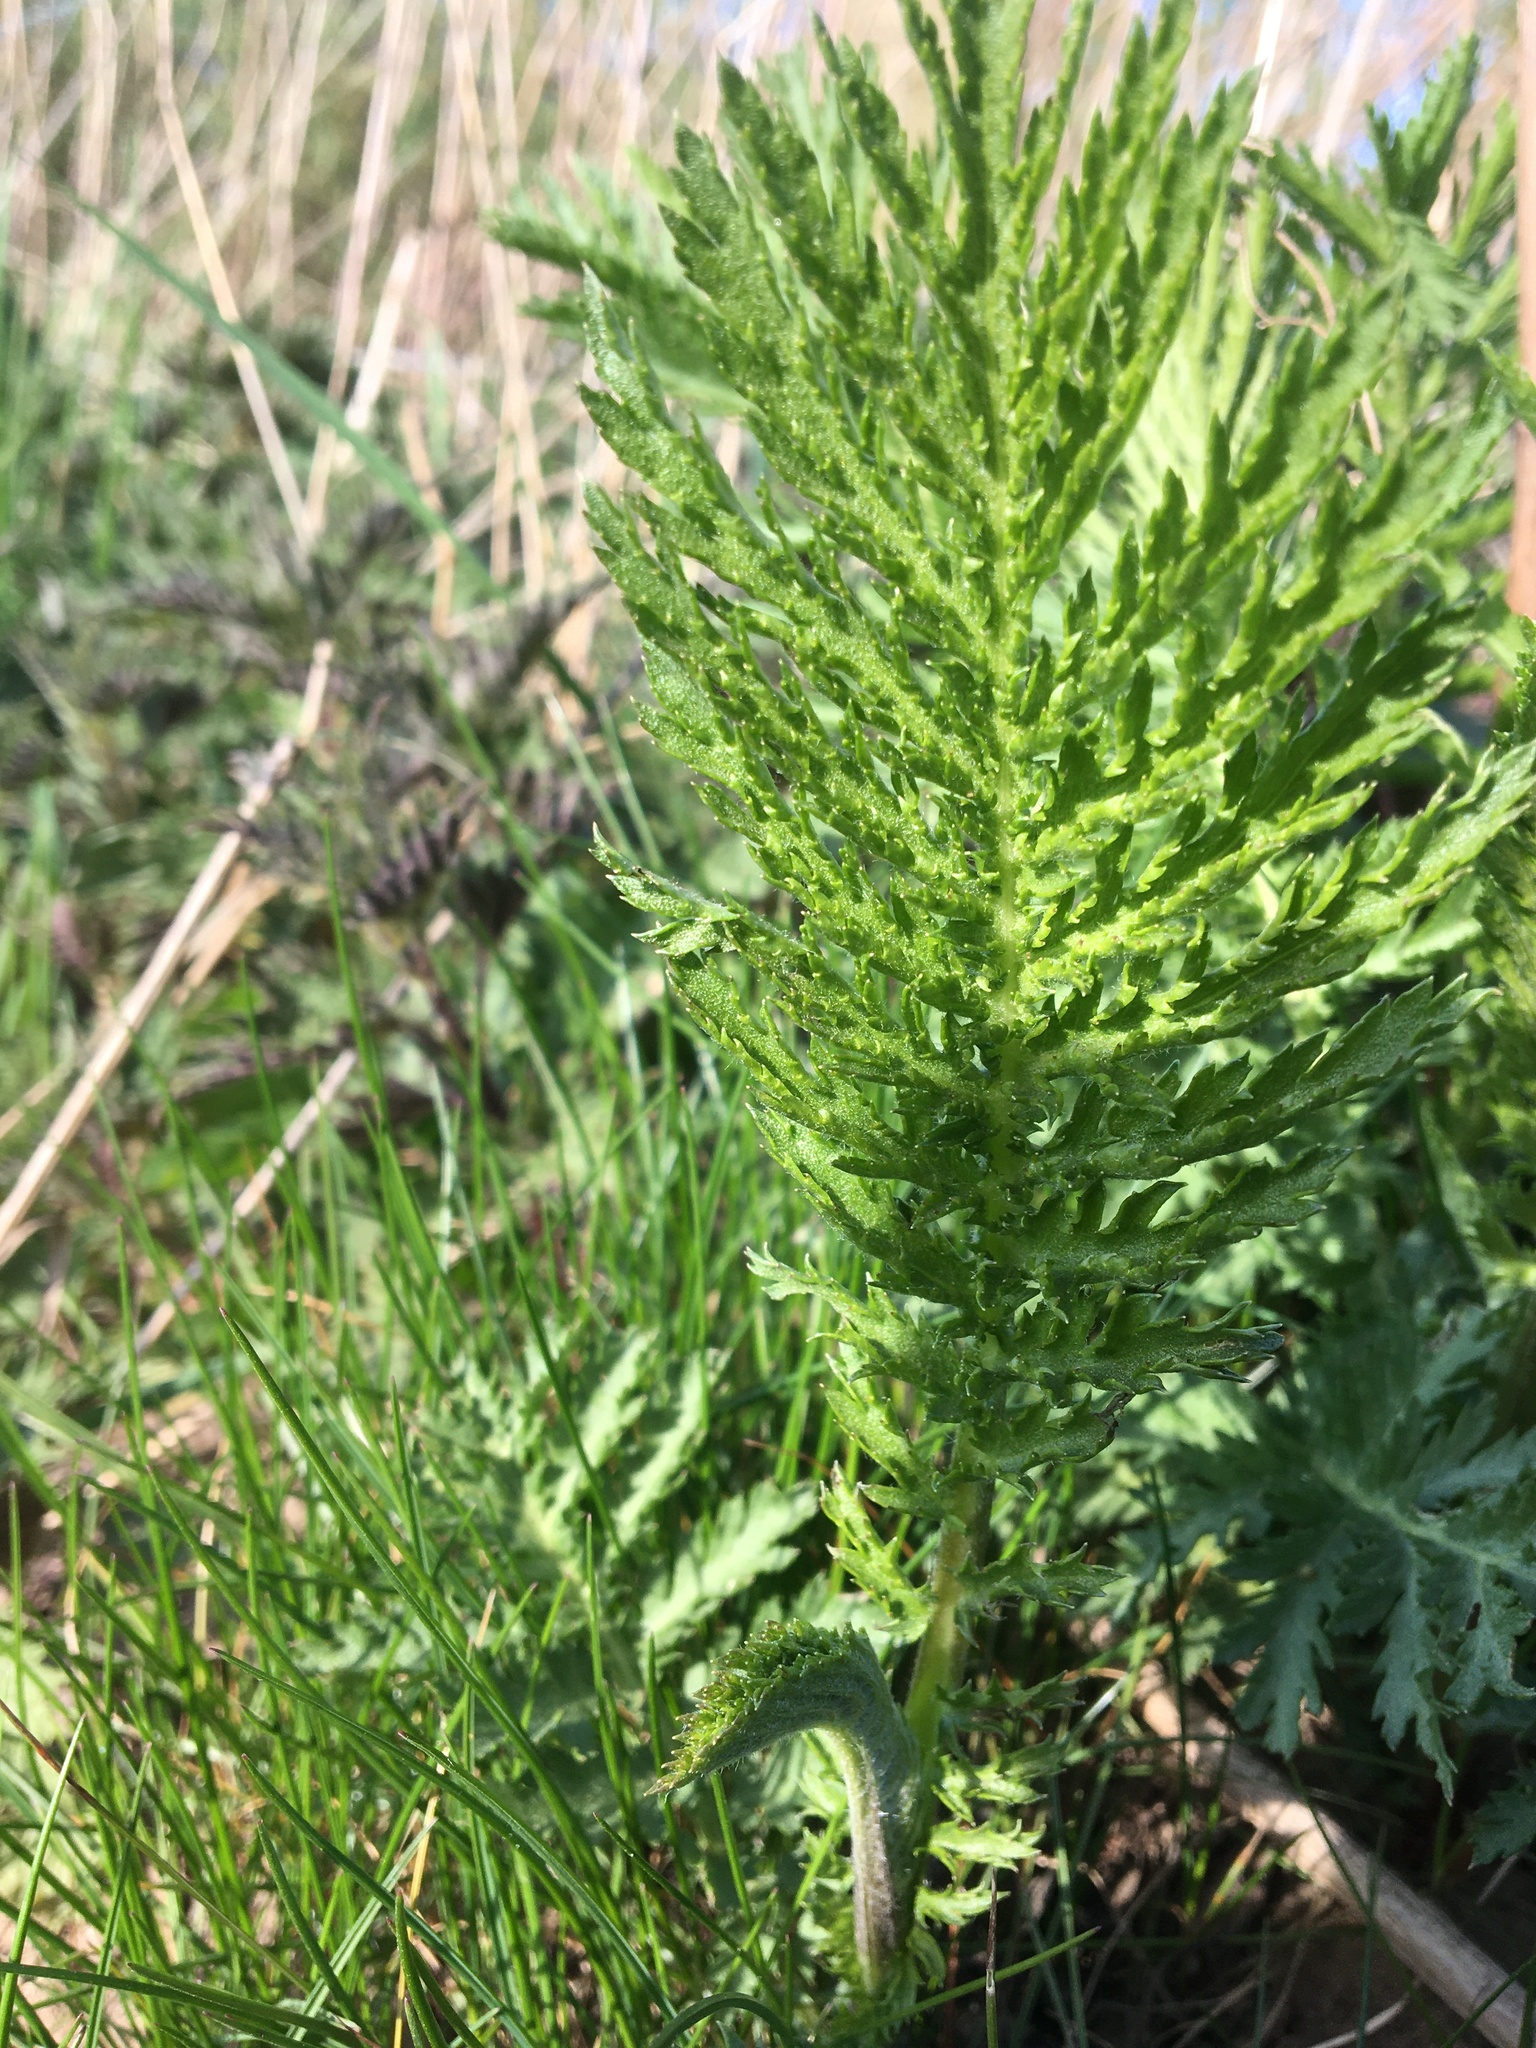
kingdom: Plantae
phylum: Tracheophyta
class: Magnoliopsida
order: Asterales
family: Asteraceae
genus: Tanacetum
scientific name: Tanacetum vulgare
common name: Common tansy
